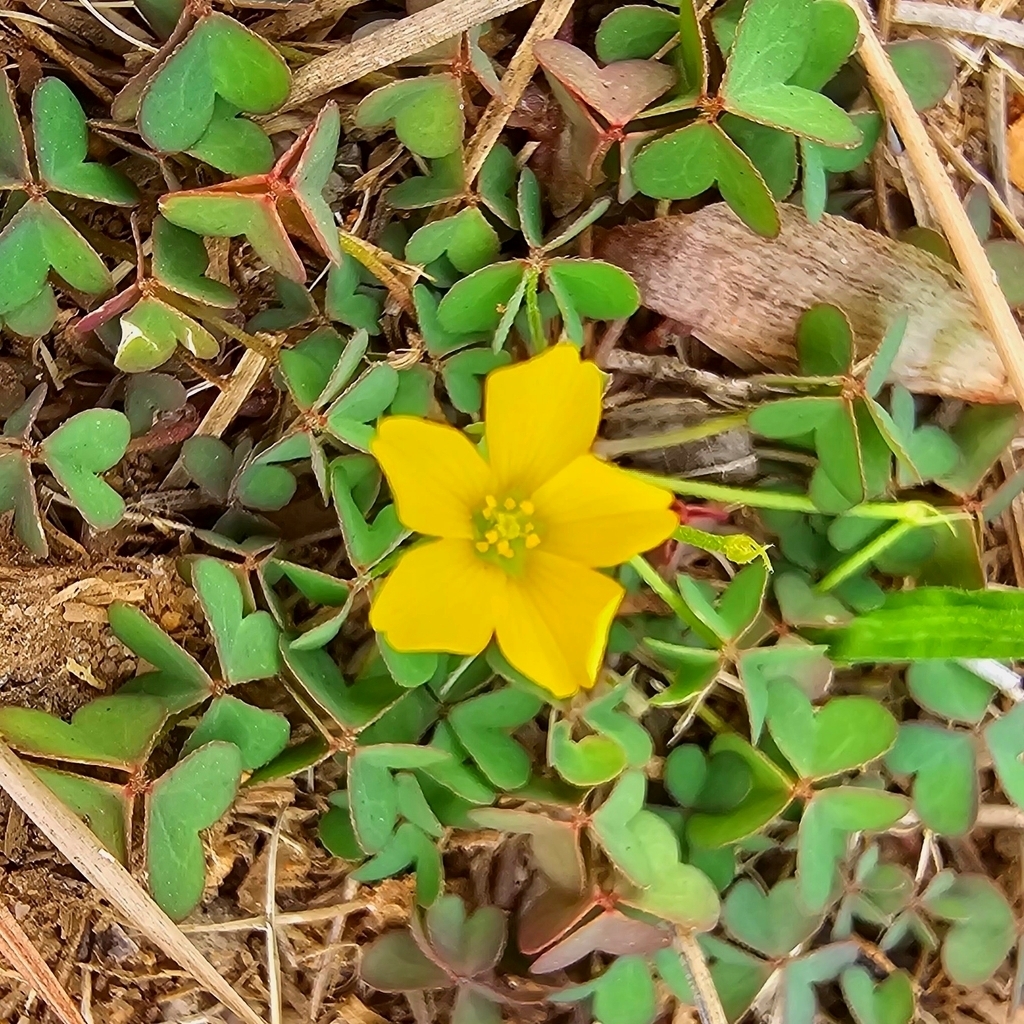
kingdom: Plantae
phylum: Tracheophyta
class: Magnoliopsida
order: Oxalidales
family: Oxalidaceae
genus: Oxalis
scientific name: Oxalis corniculata
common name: Procumbent yellow-sorrel
